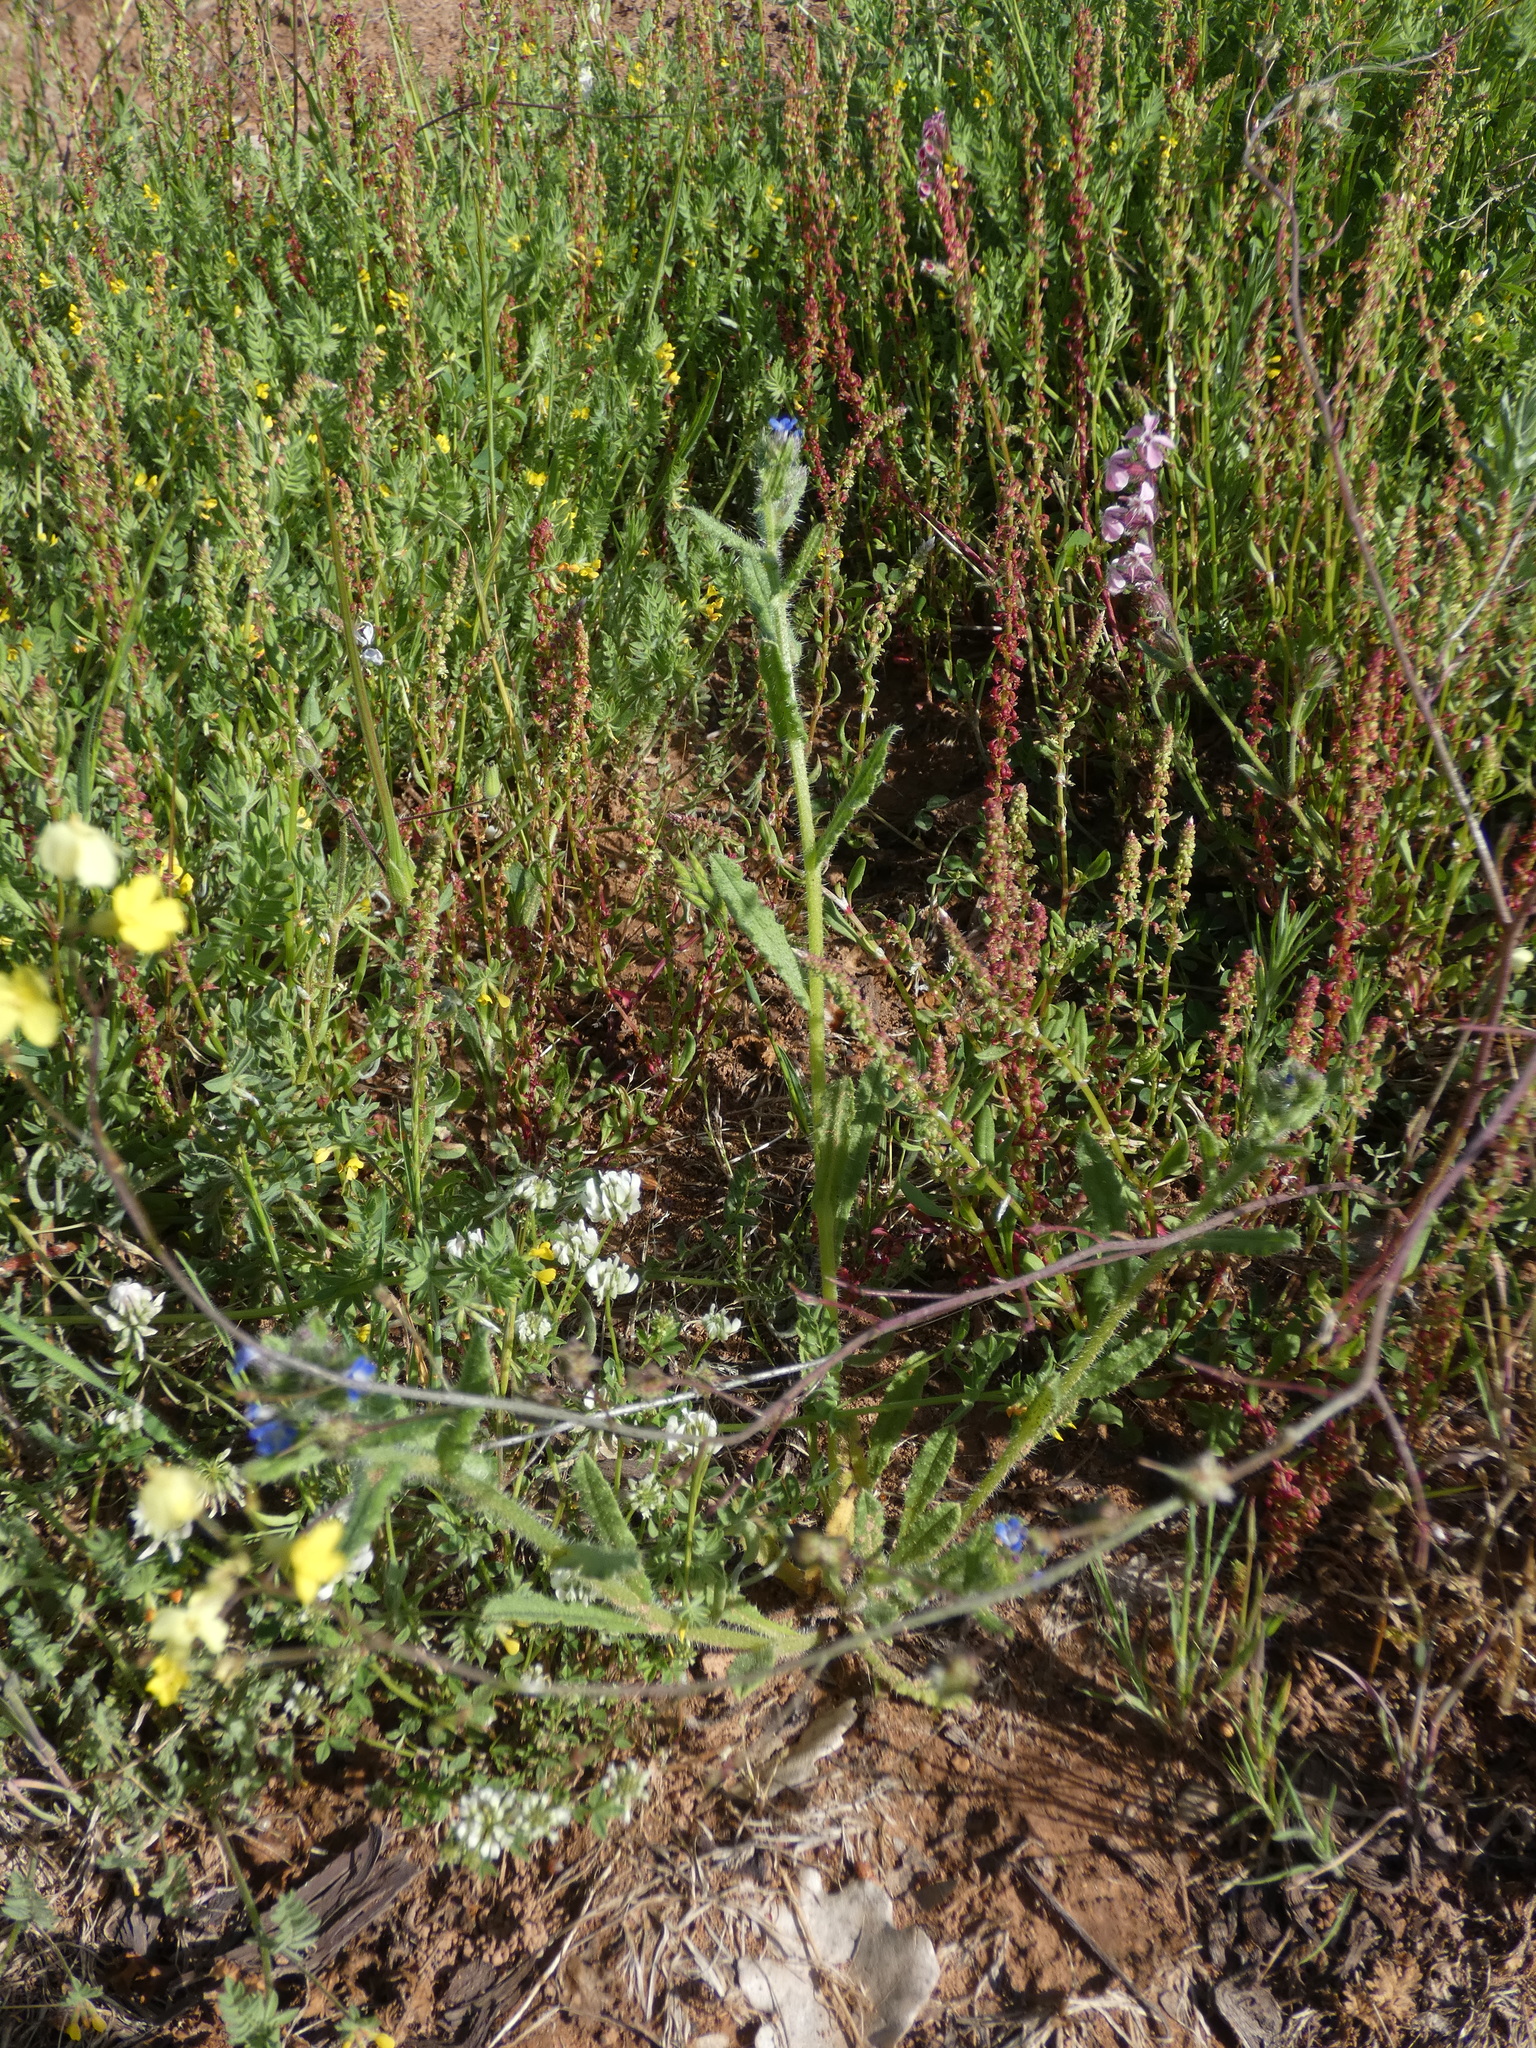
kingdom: Plantae
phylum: Tracheophyta
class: Magnoliopsida
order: Boraginales
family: Boraginaceae
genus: Lycopsis
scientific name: Lycopsis arvensis
